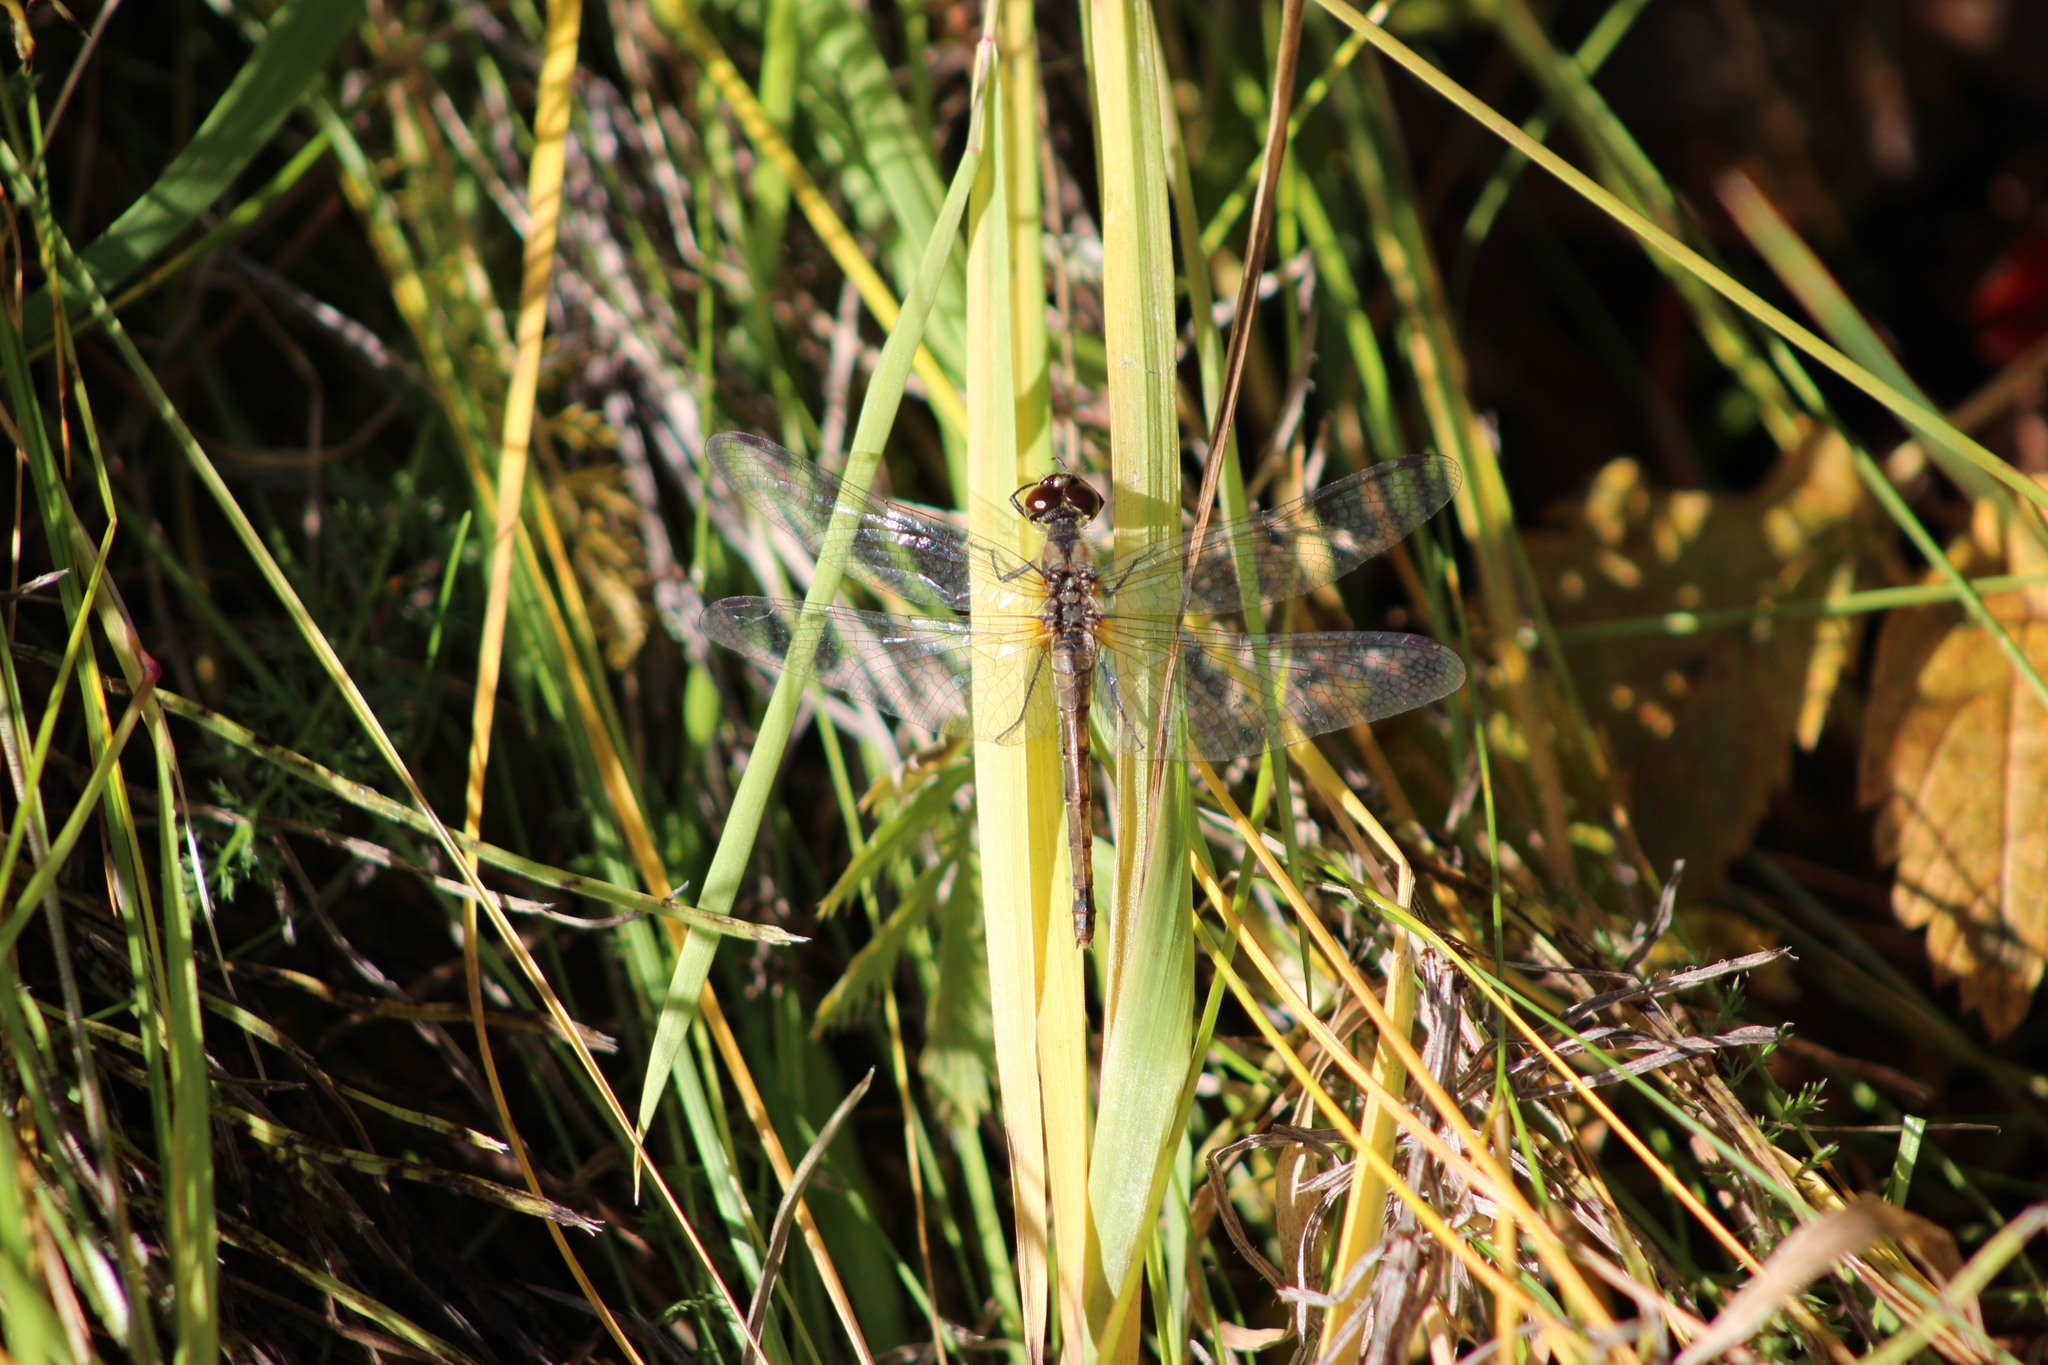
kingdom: Animalia
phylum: Arthropoda
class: Insecta
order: Odonata
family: Libellulidae
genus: Sympetrum
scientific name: Sympetrum danae
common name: Black darter
